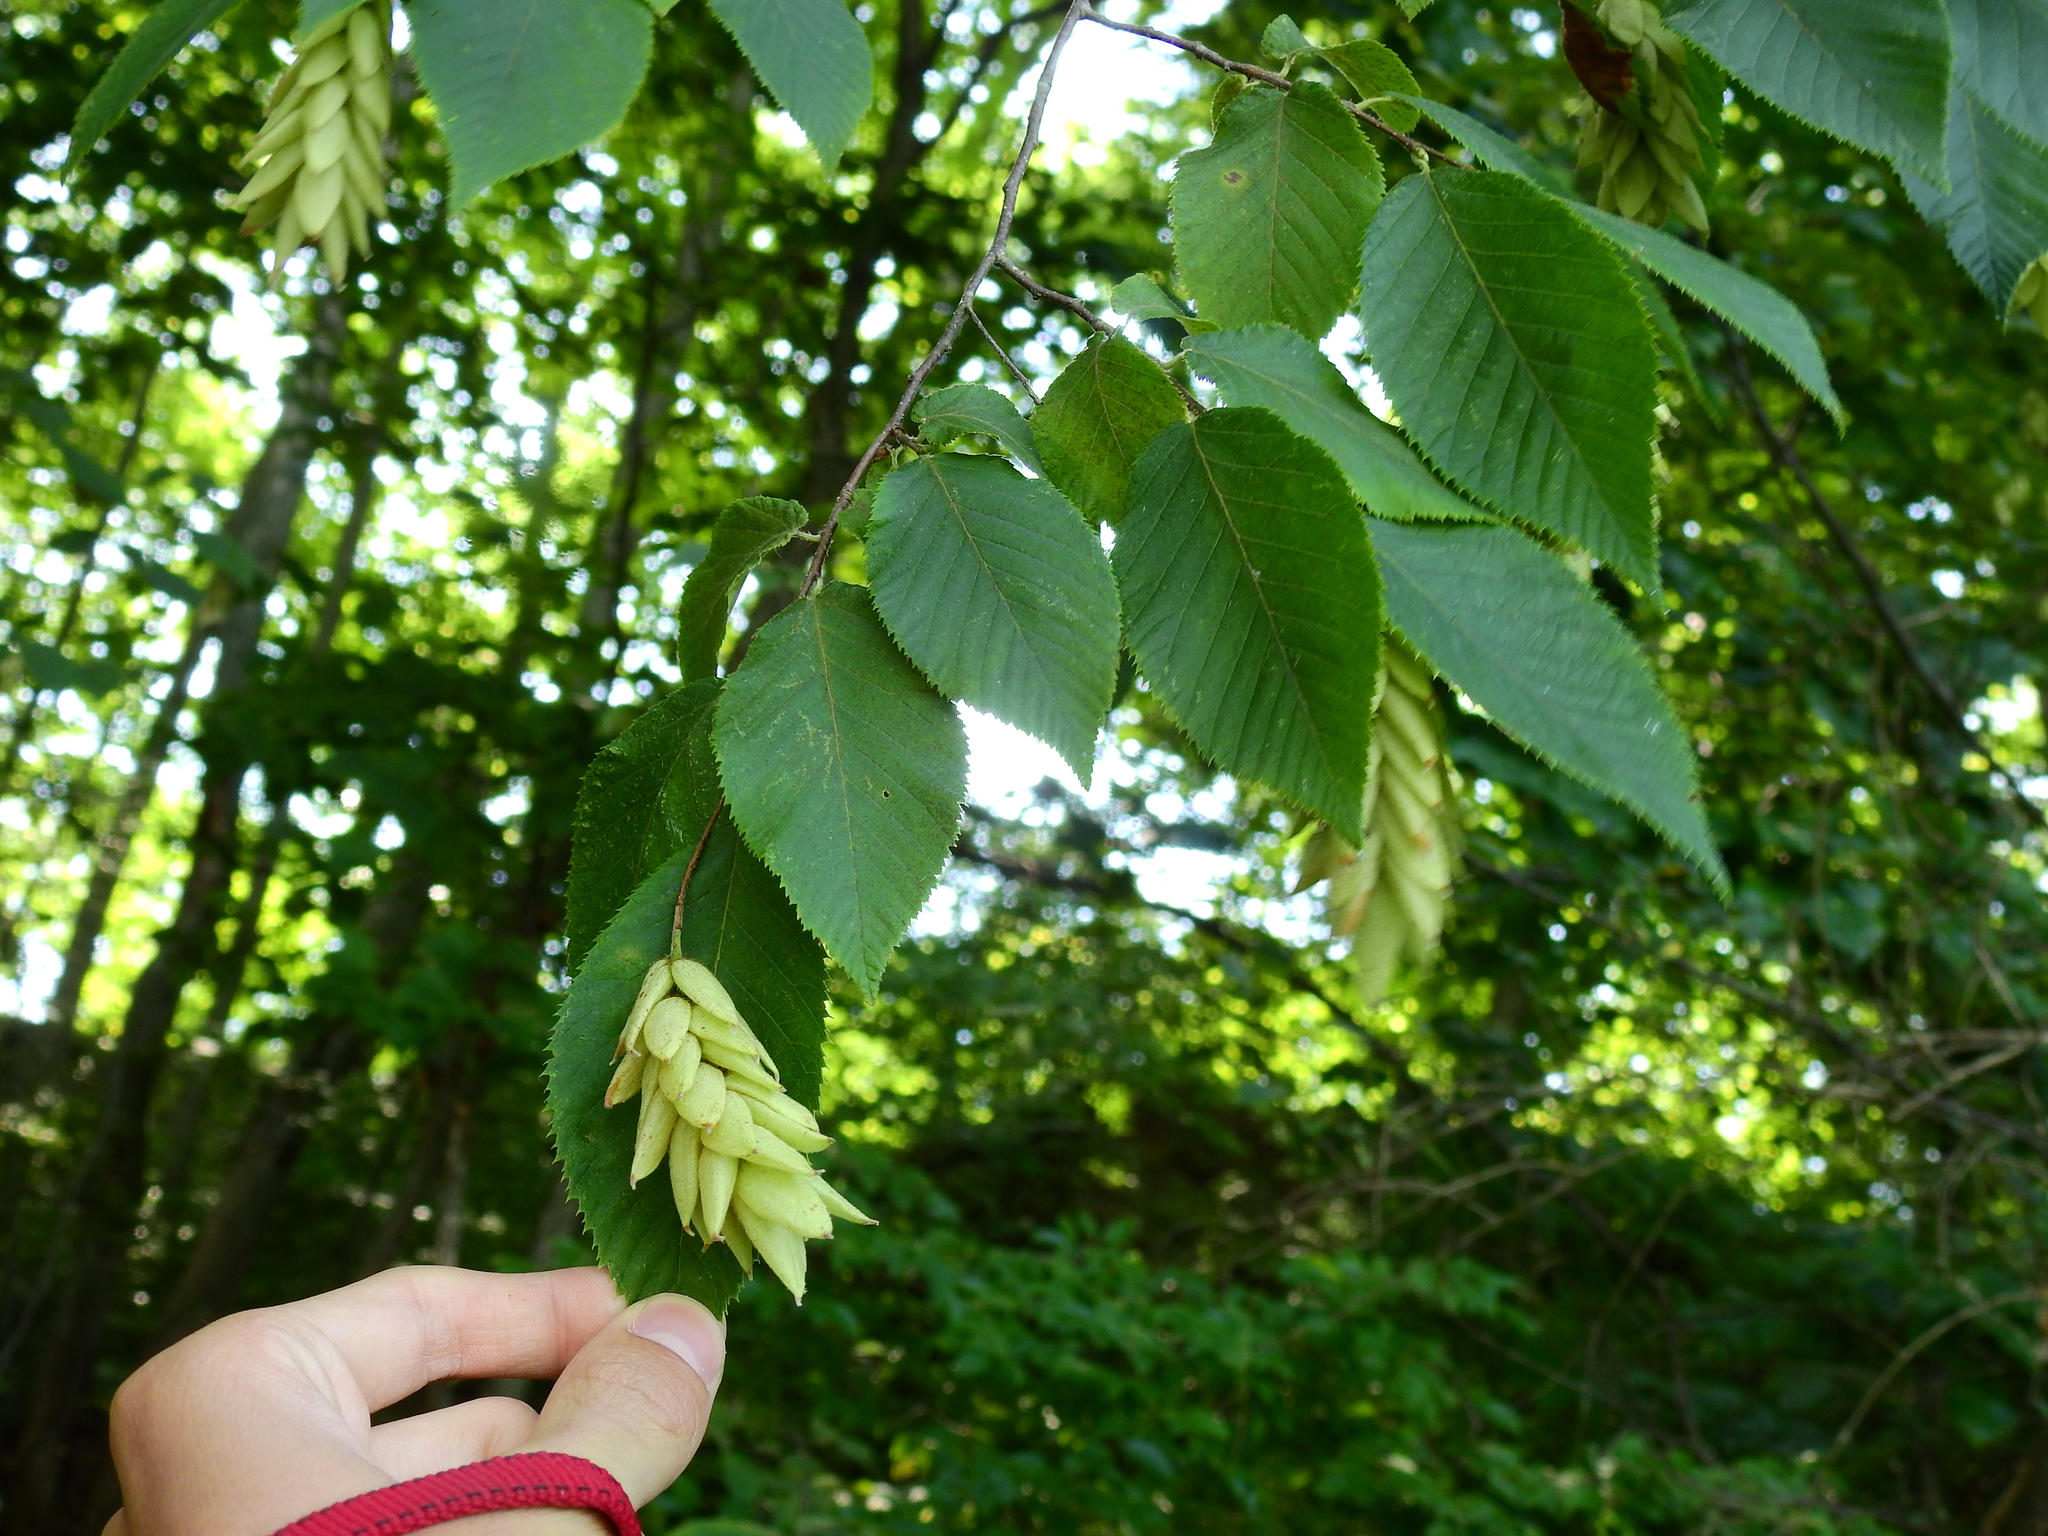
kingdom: Plantae
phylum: Tracheophyta
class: Magnoliopsida
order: Fagales
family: Betulaceae
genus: Ostrya
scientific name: Ostrya virginiana
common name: Ironwood
